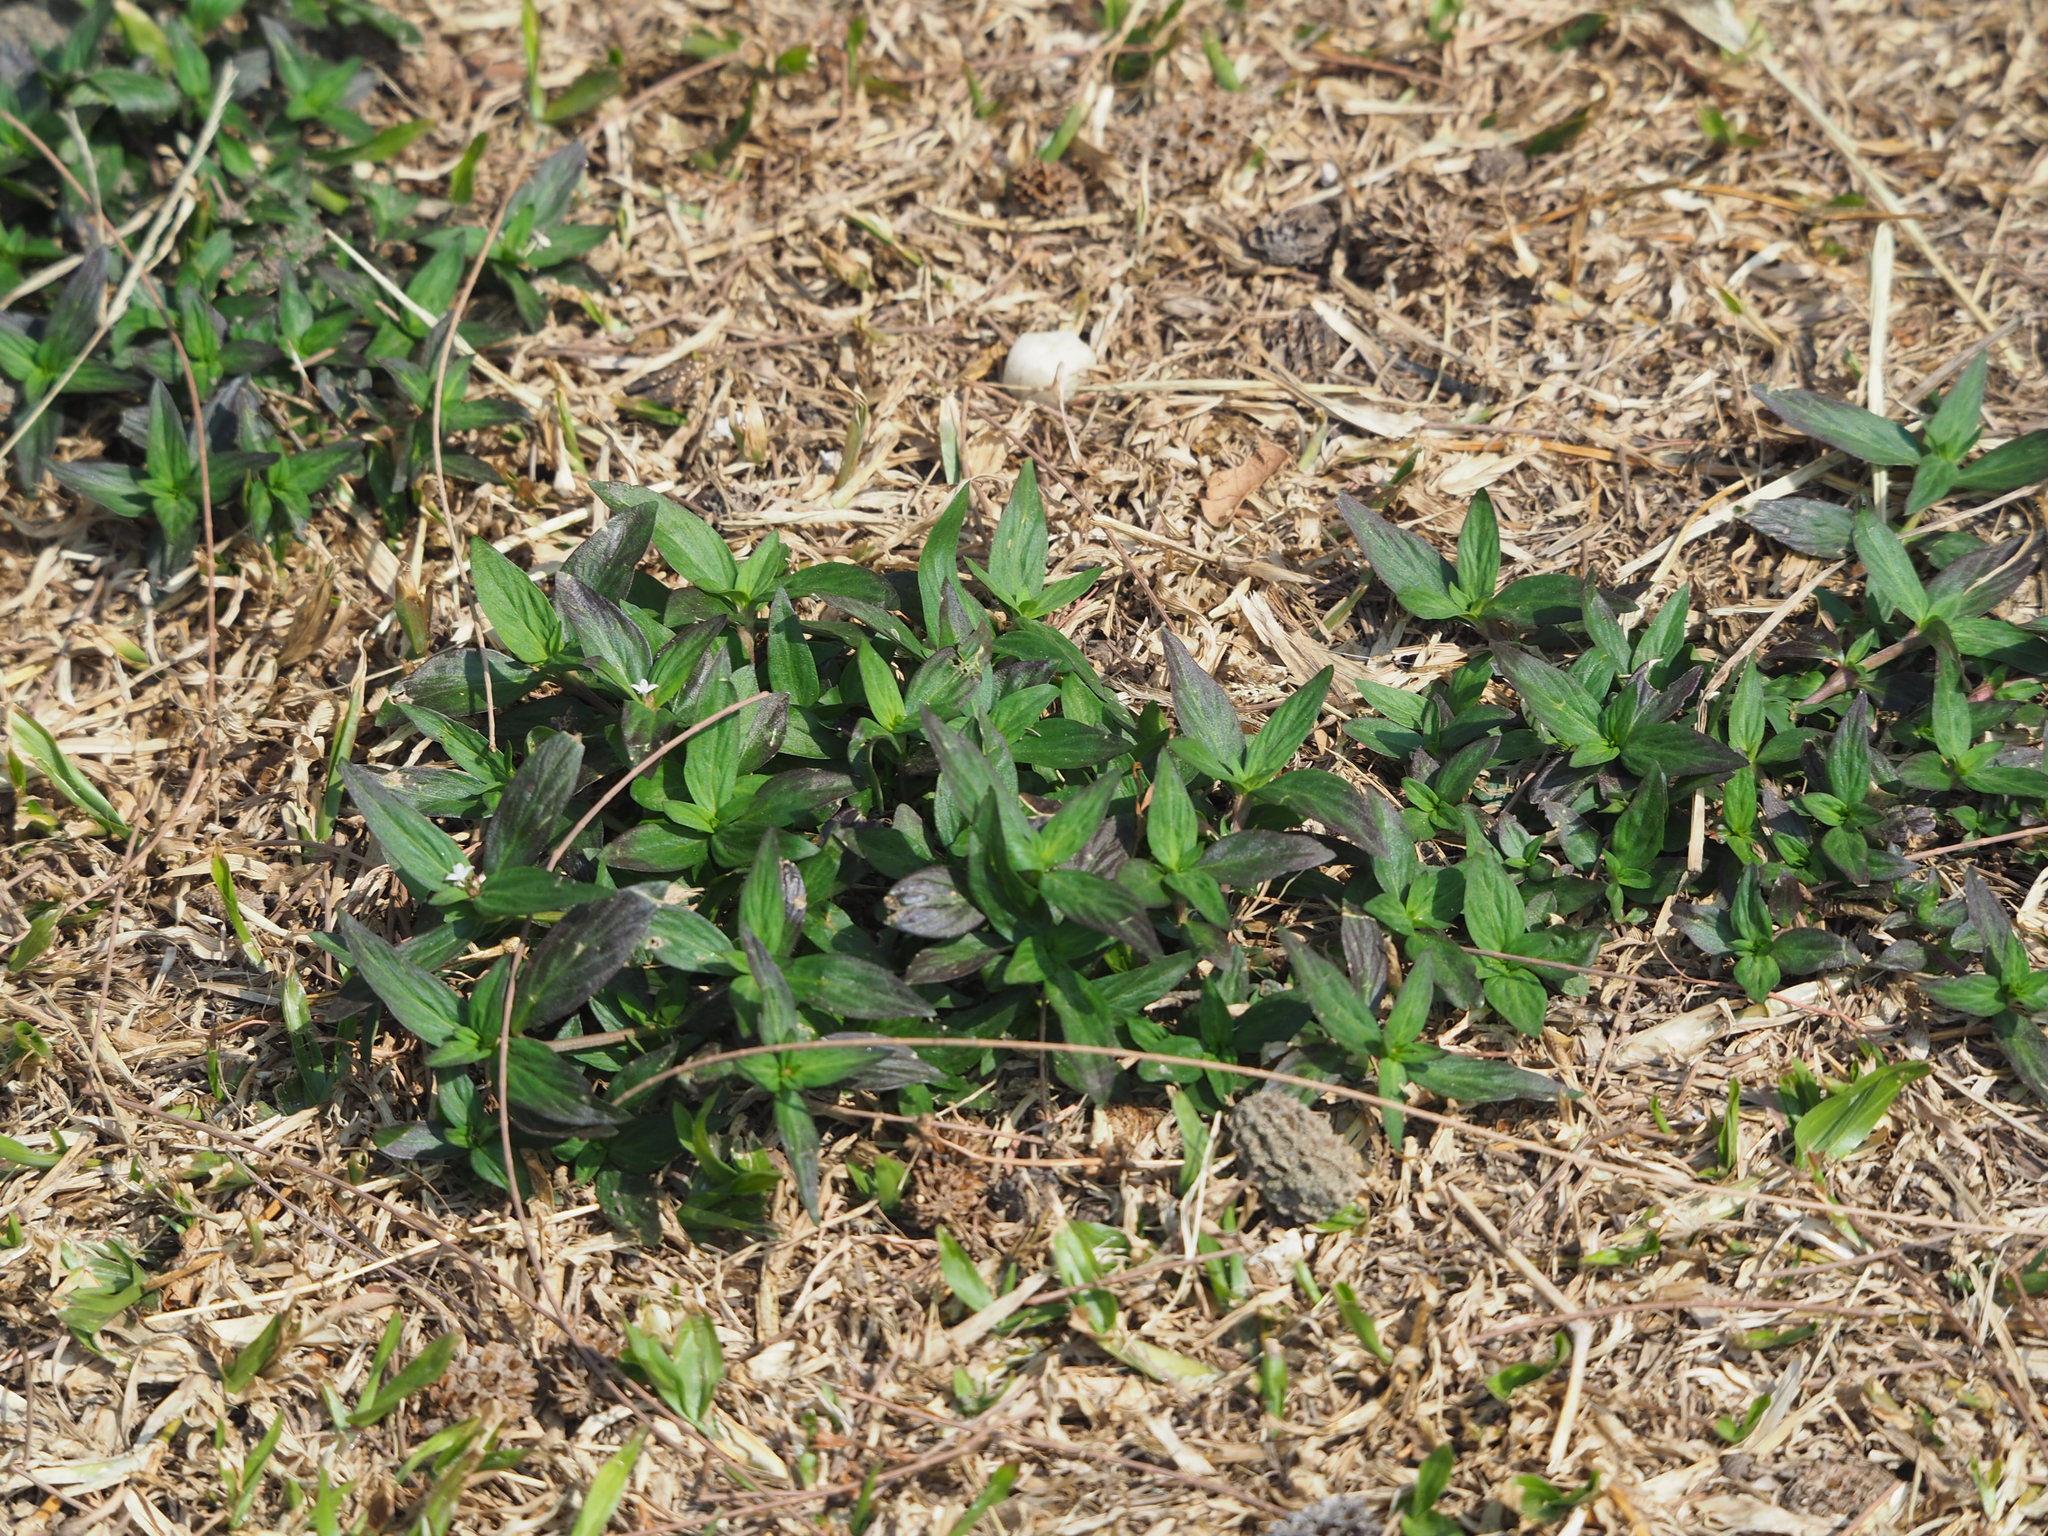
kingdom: Plantae
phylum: Tracheophyta
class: Magnoliopsida
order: Gentianales
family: Rubiaceae
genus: Spermacoce
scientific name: Spermacoce remota
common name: Woodland false buttonweed
